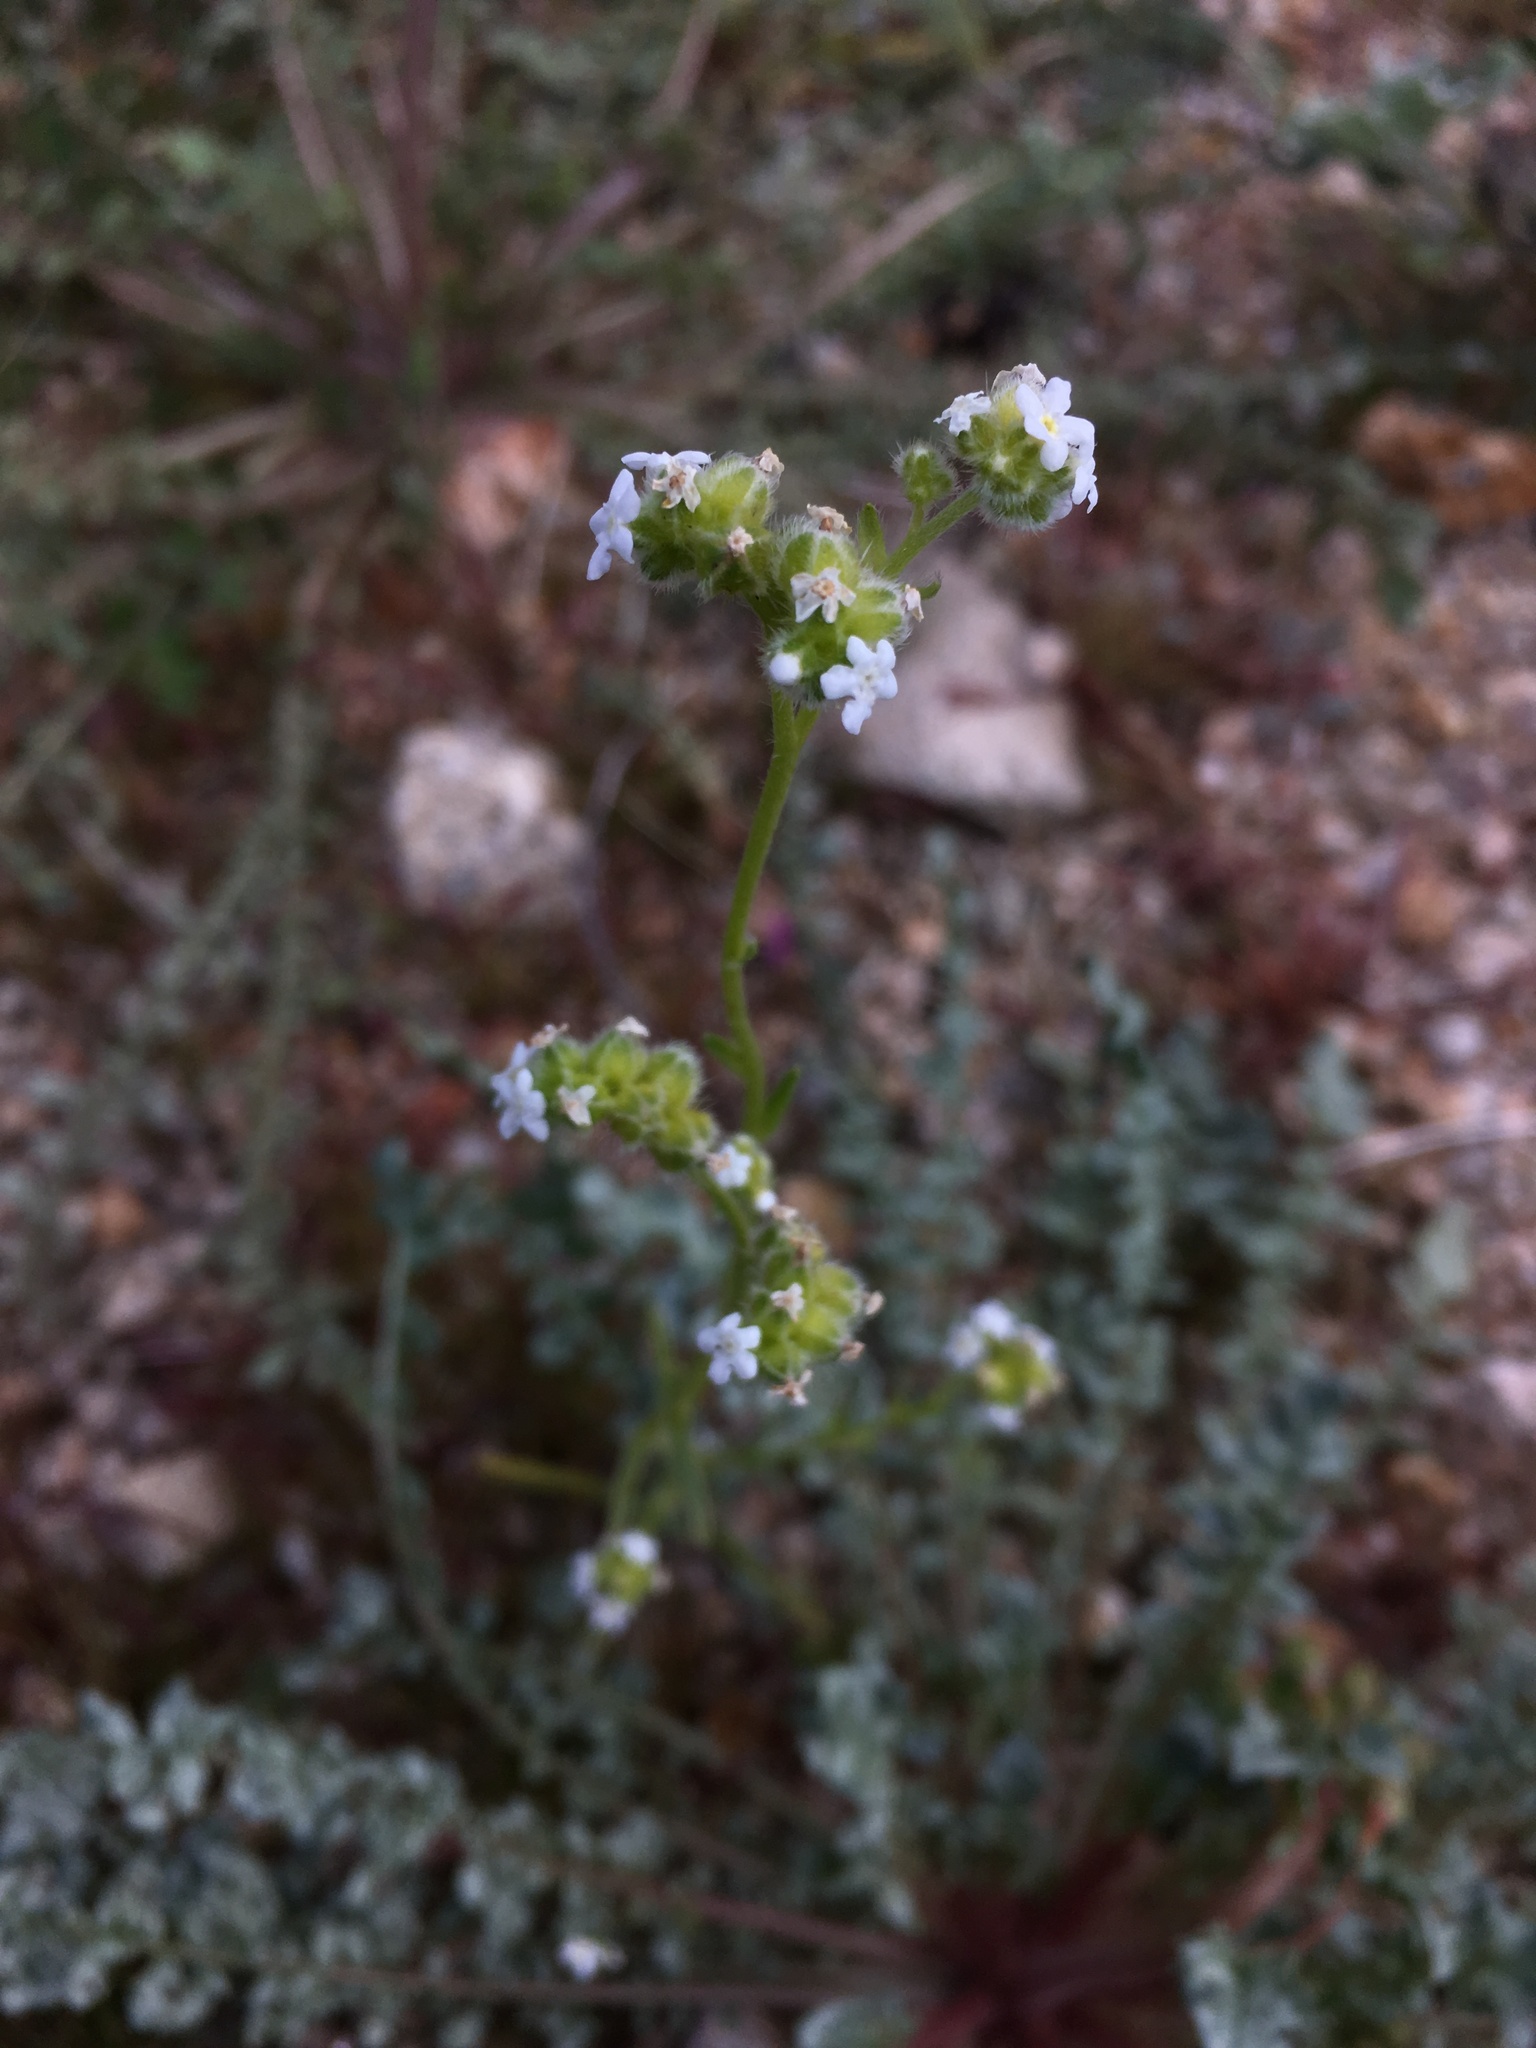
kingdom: Plantae
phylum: Tracheophyta
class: Magnoliopsida
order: Boraginales
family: Boraginaceae
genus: Cryptantha
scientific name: Cryptantha pterocarya
